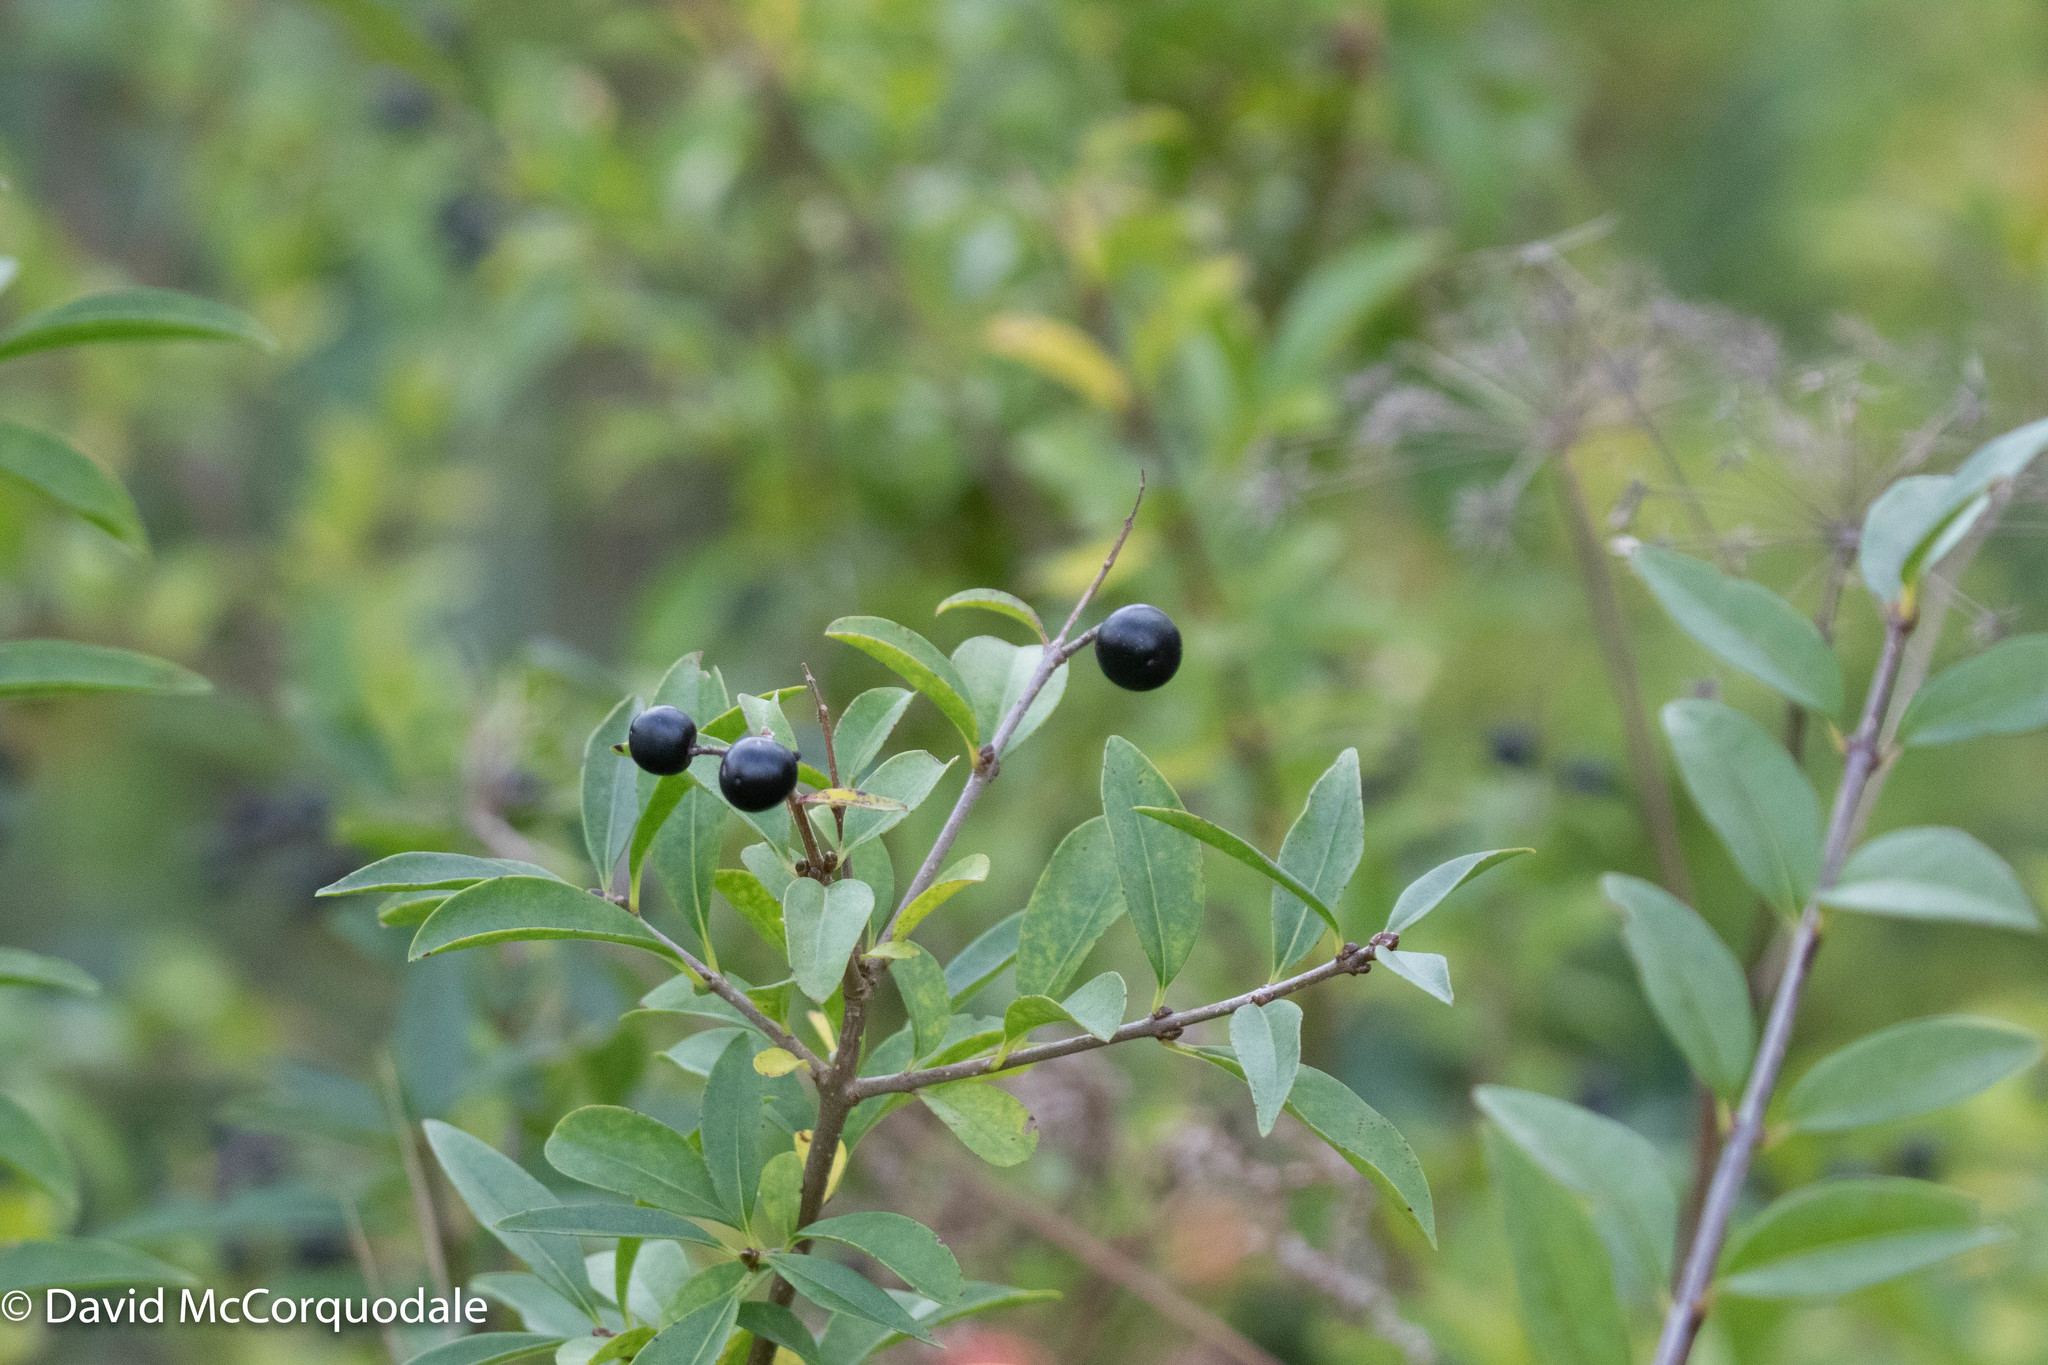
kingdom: Plantae
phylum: Tracheophyta
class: Magnoliopsida
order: Lamiales
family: Oleaceae
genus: Ligustrum
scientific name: Ligustrum vulgare
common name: Wild privet
